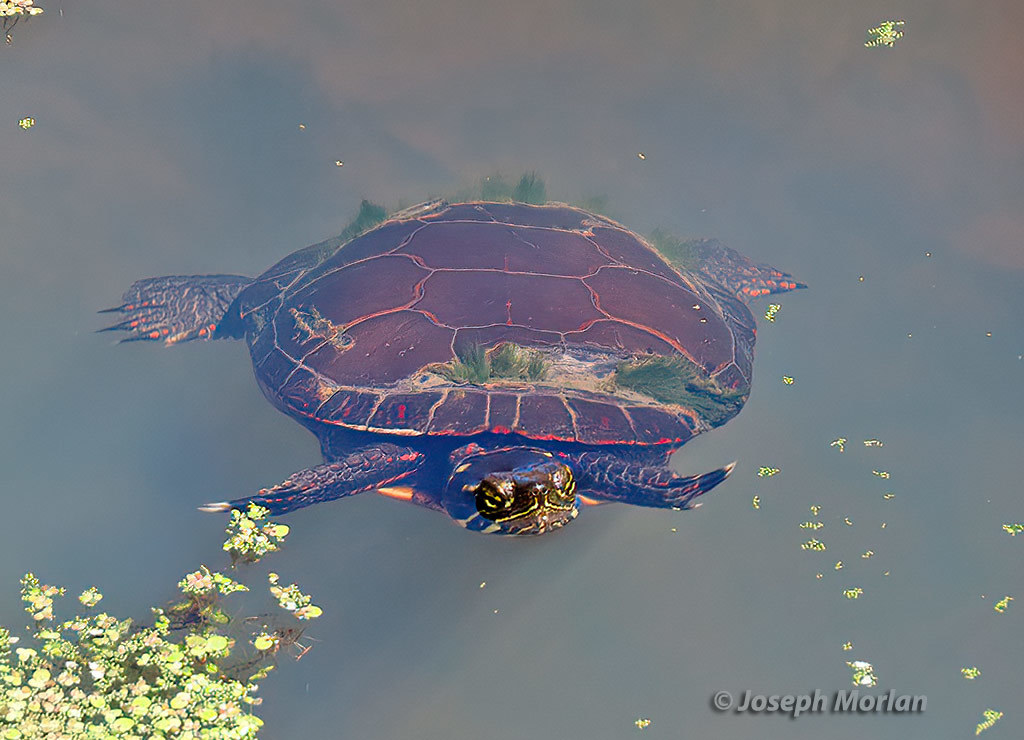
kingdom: Animalia
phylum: Chordata
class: Testudines
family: Emydidae
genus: Chrysemys
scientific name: Chrysemys picta
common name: Painted turtle
